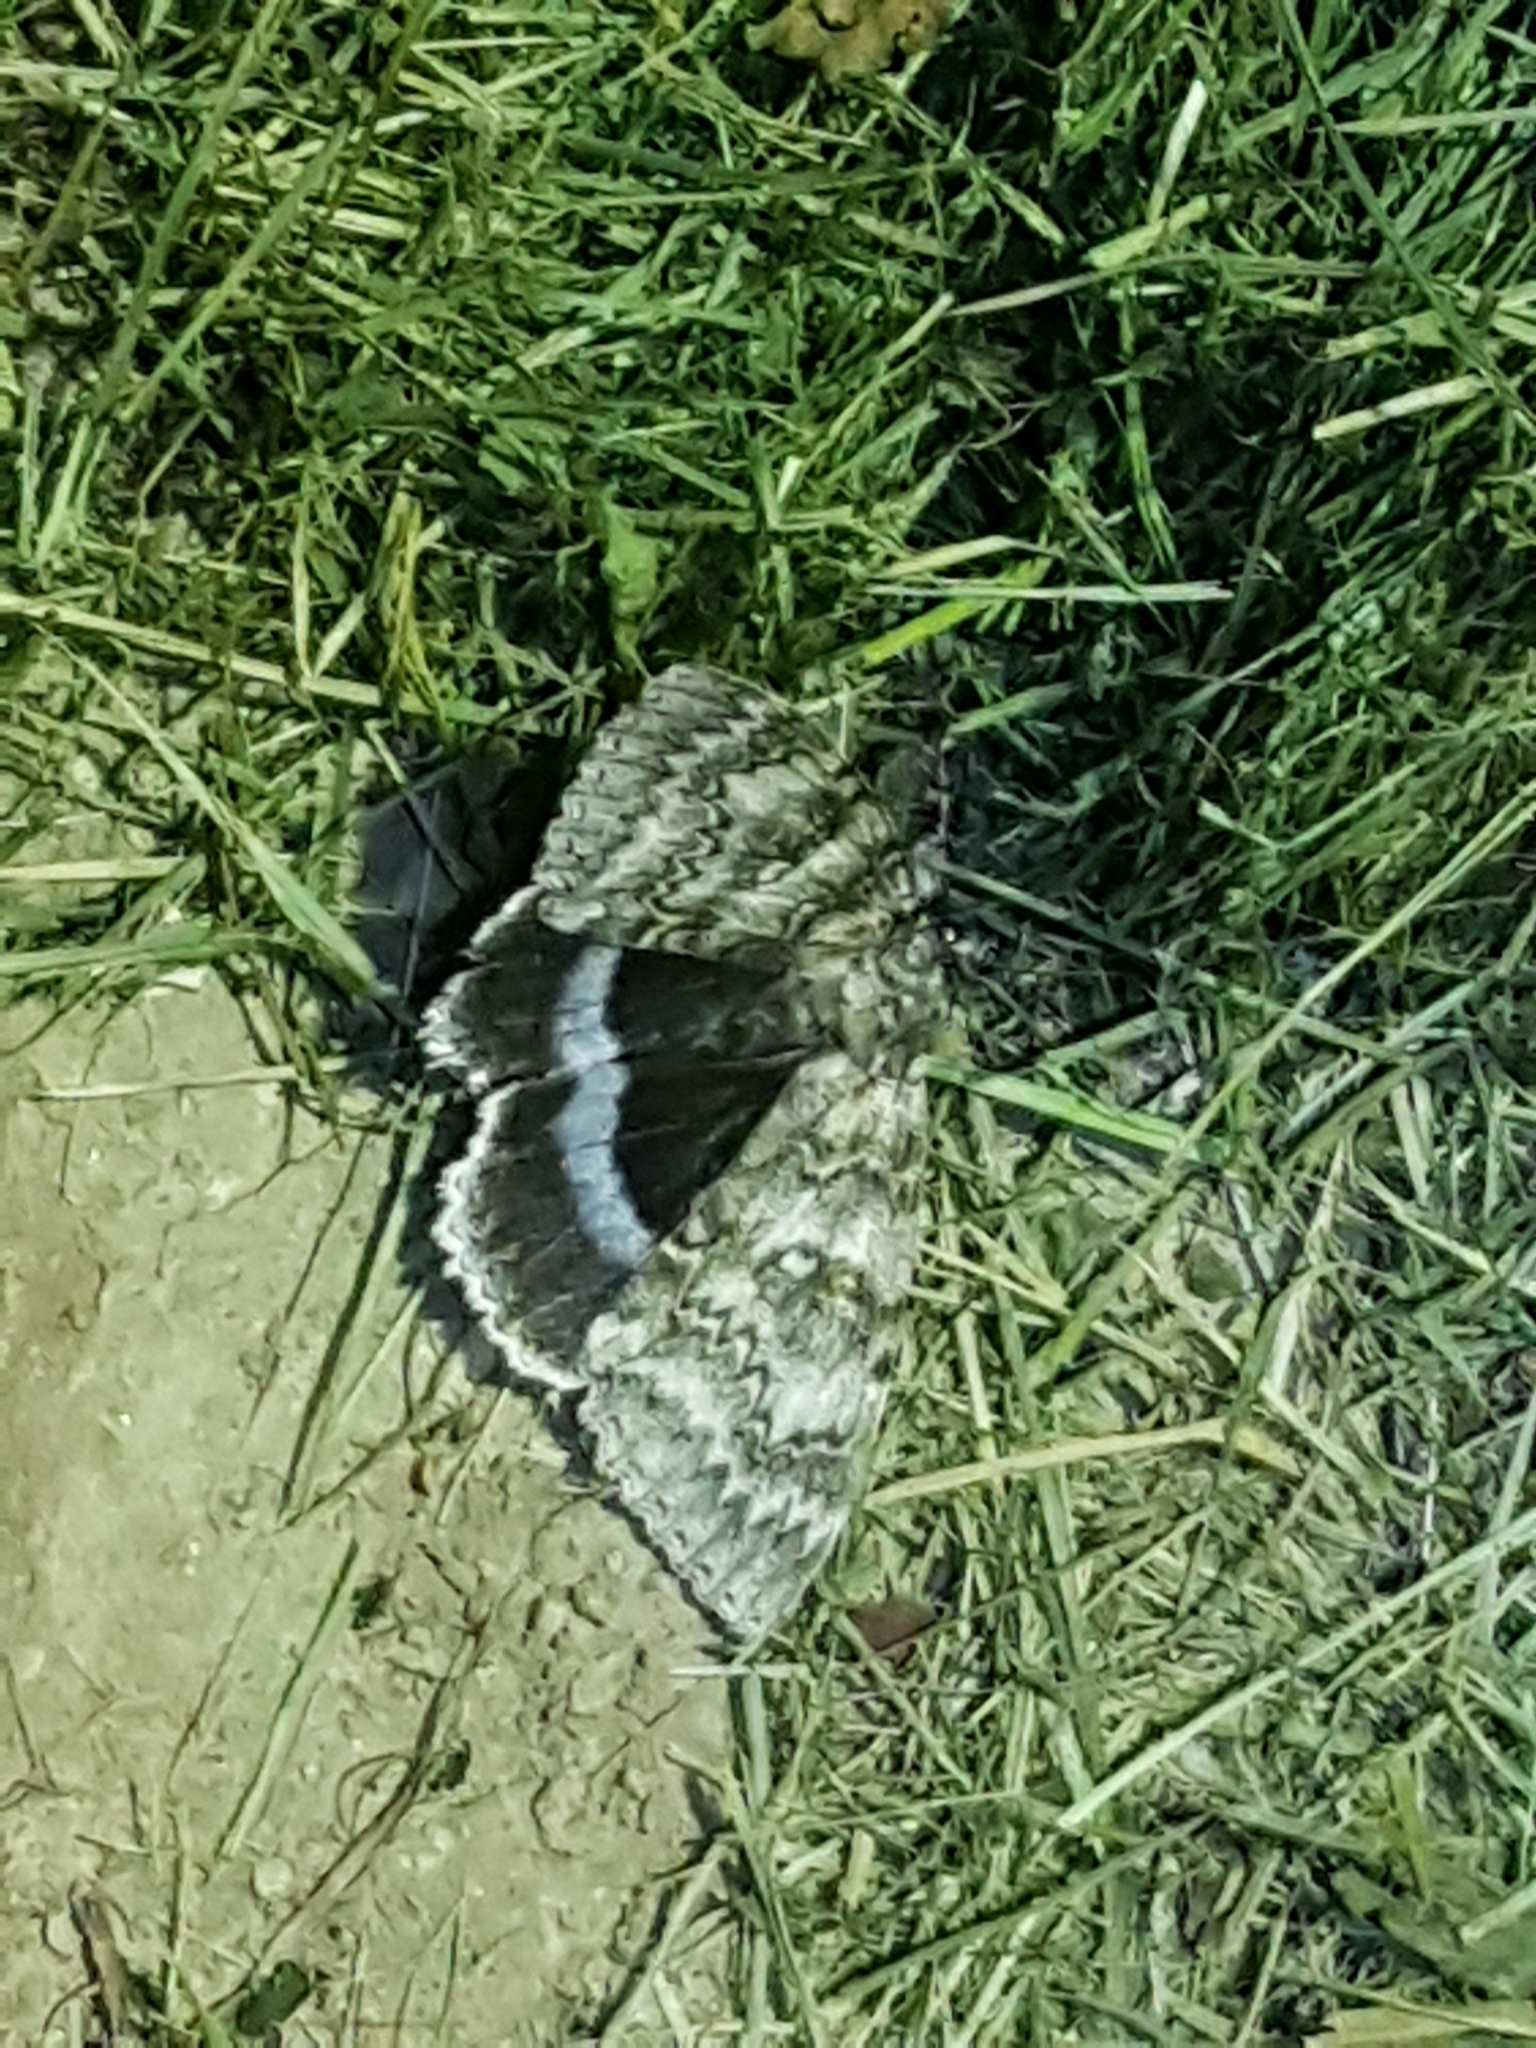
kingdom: Animalia
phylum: Arthropoda
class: Insecta
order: Lepidoptera
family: Erebidae
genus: Catocala
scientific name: Catocala fraxini
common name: Clifden nonpareil
